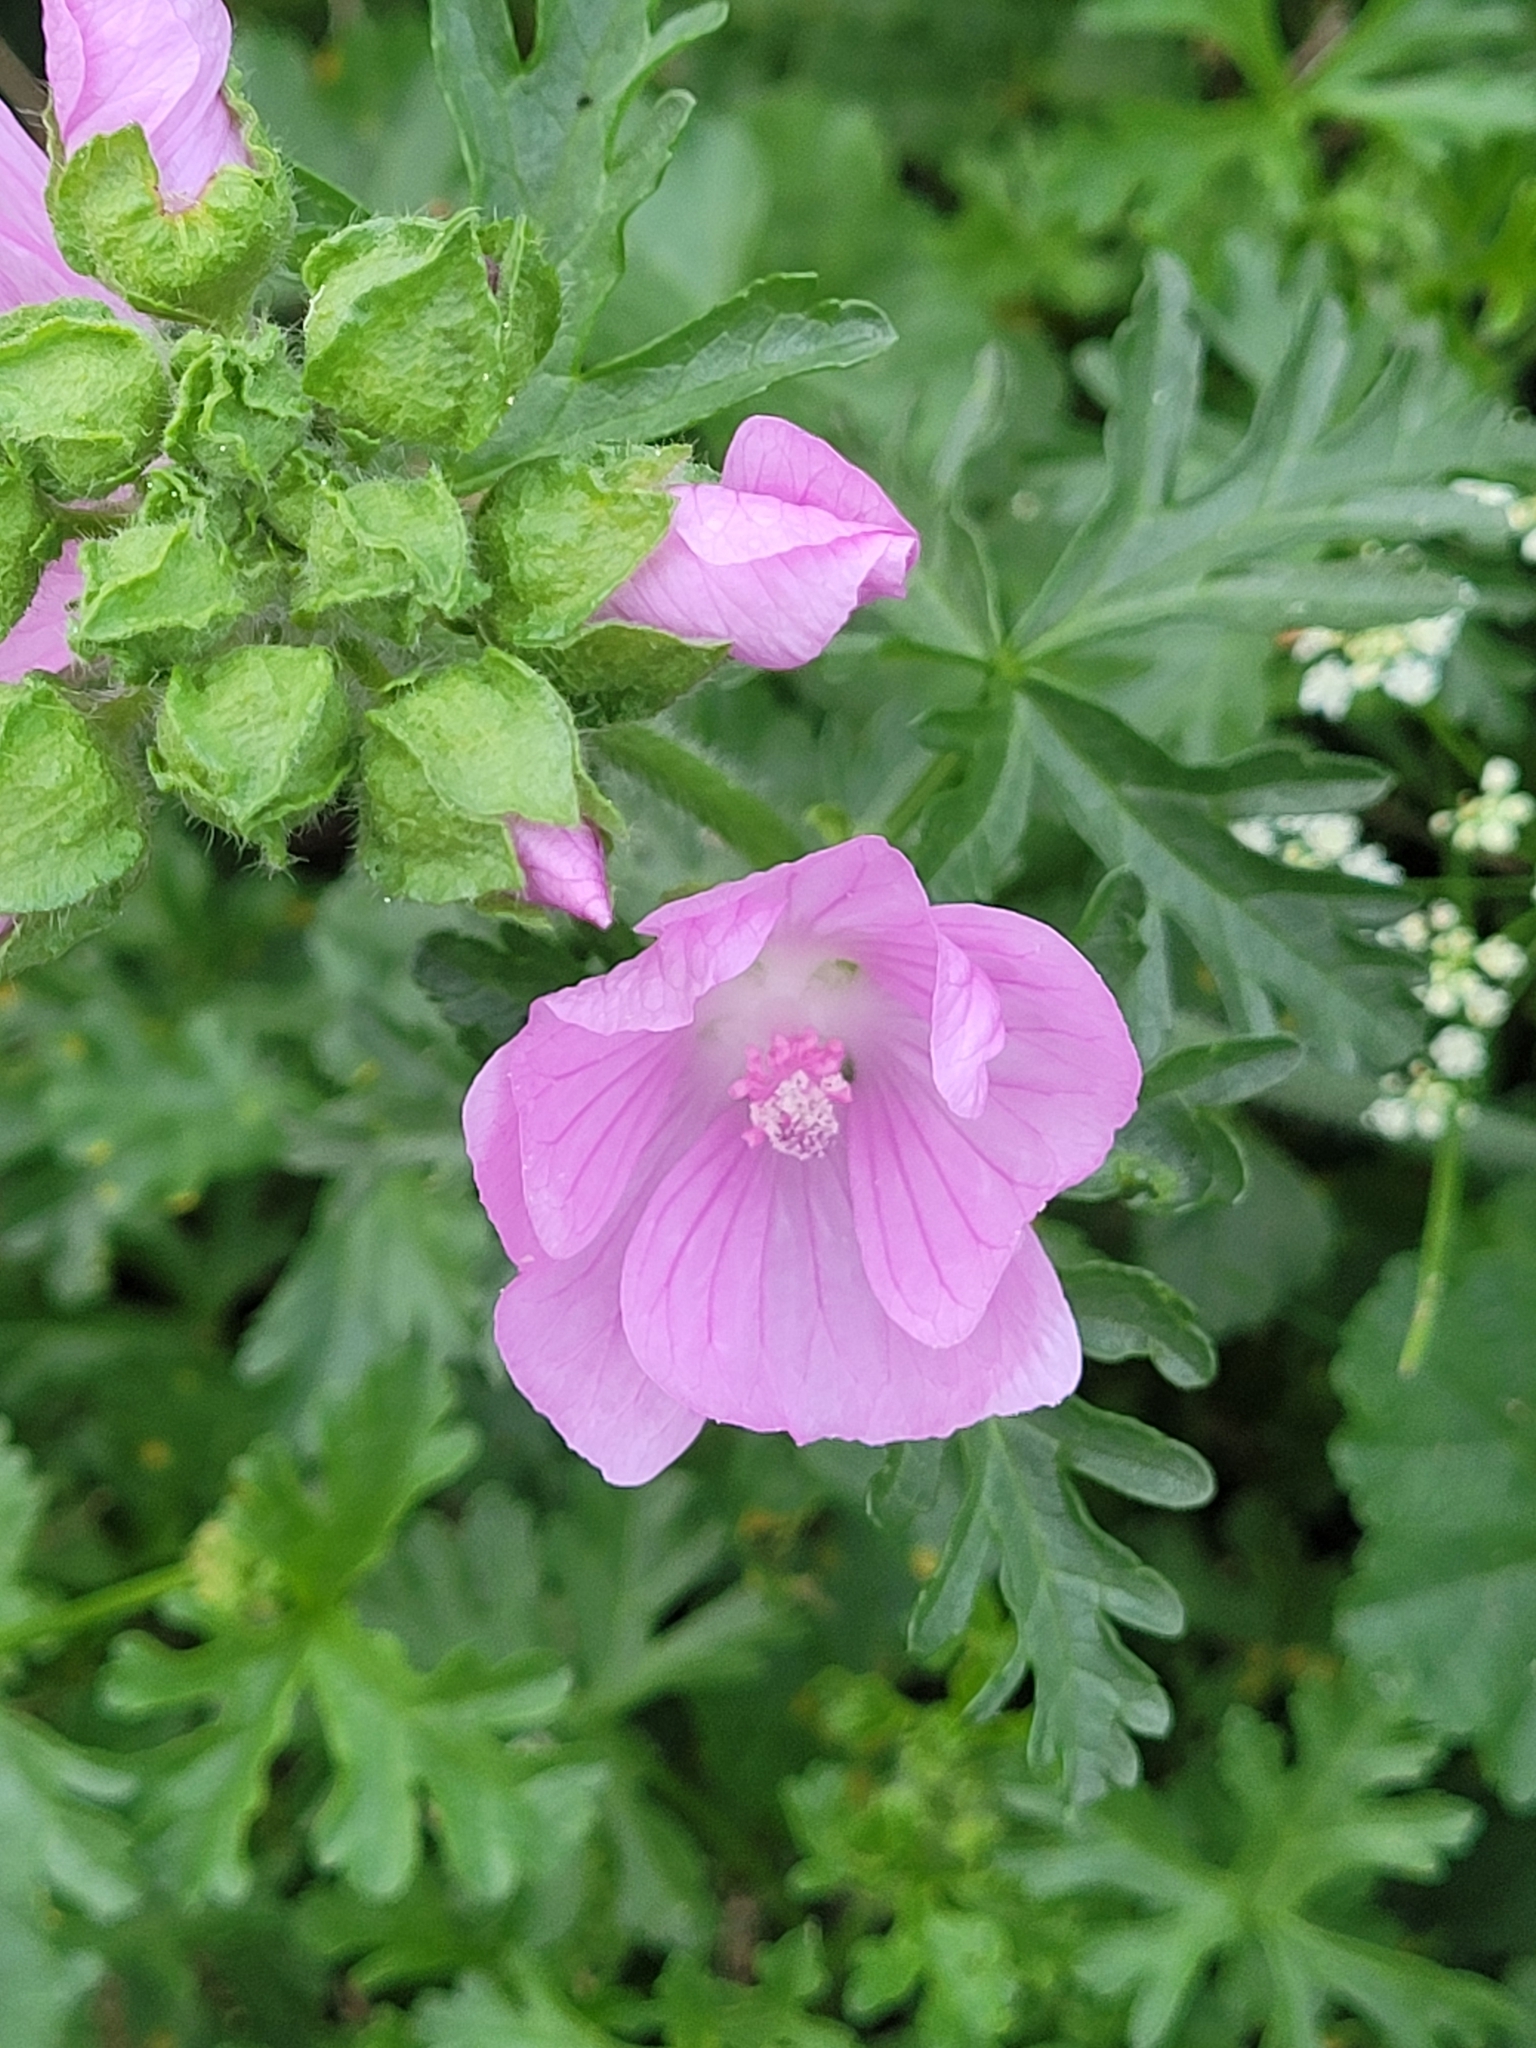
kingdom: Plantae
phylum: Tracheophyta
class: Magnoliopsida
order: Malvales
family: Malvaceae
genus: Malva
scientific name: Malva moschata
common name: Musk mallow
